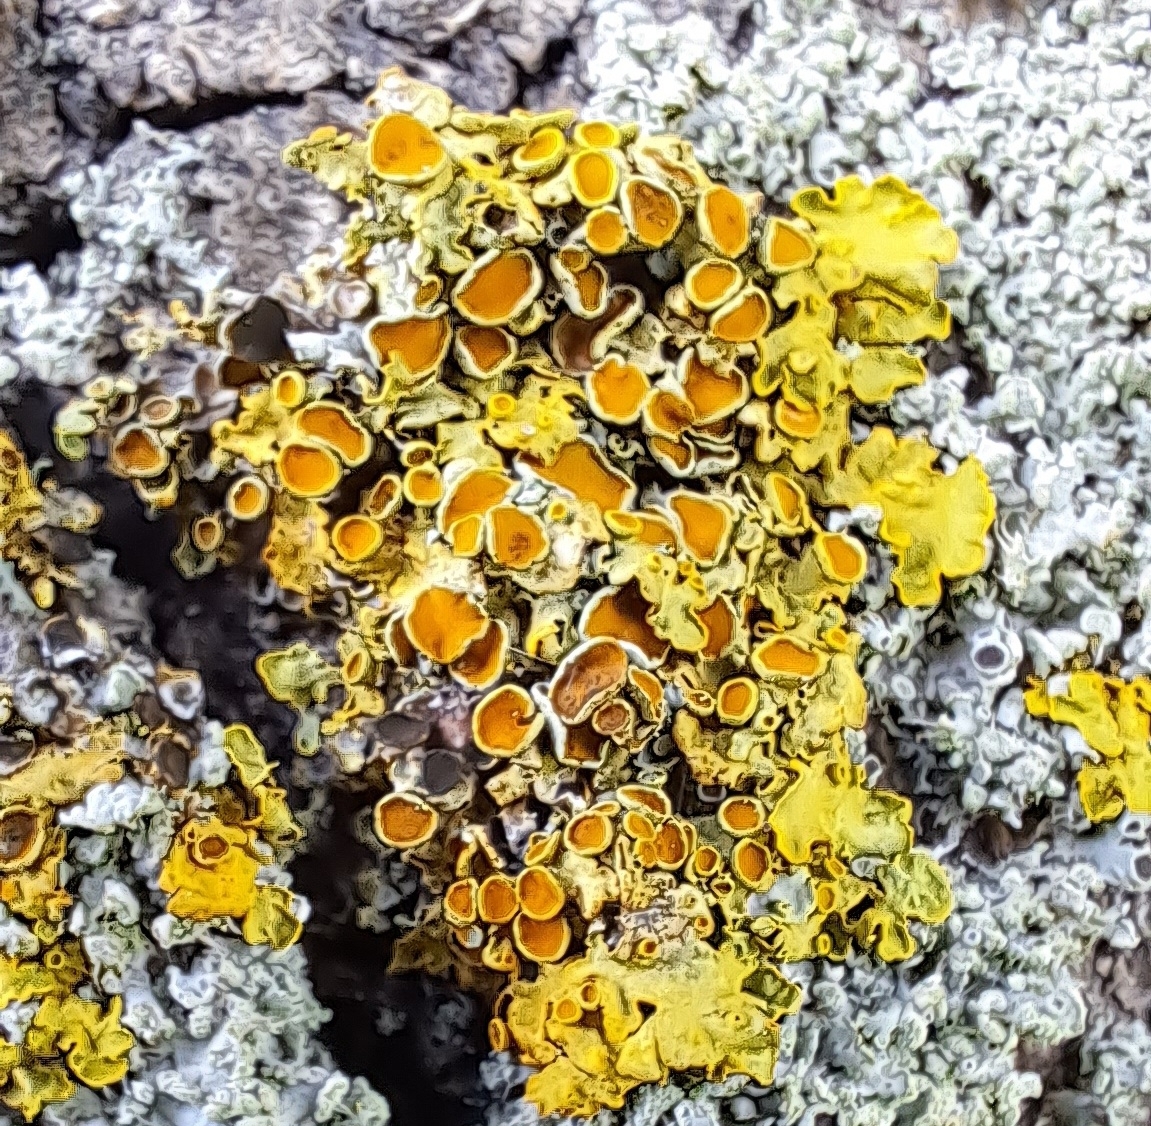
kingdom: Fungi
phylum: Ascomycota
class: Lecanoromycetes
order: Teloschistales
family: Teloschistaceae
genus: Xanthoria
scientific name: Xanthoria parietina
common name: Common orange lichen
